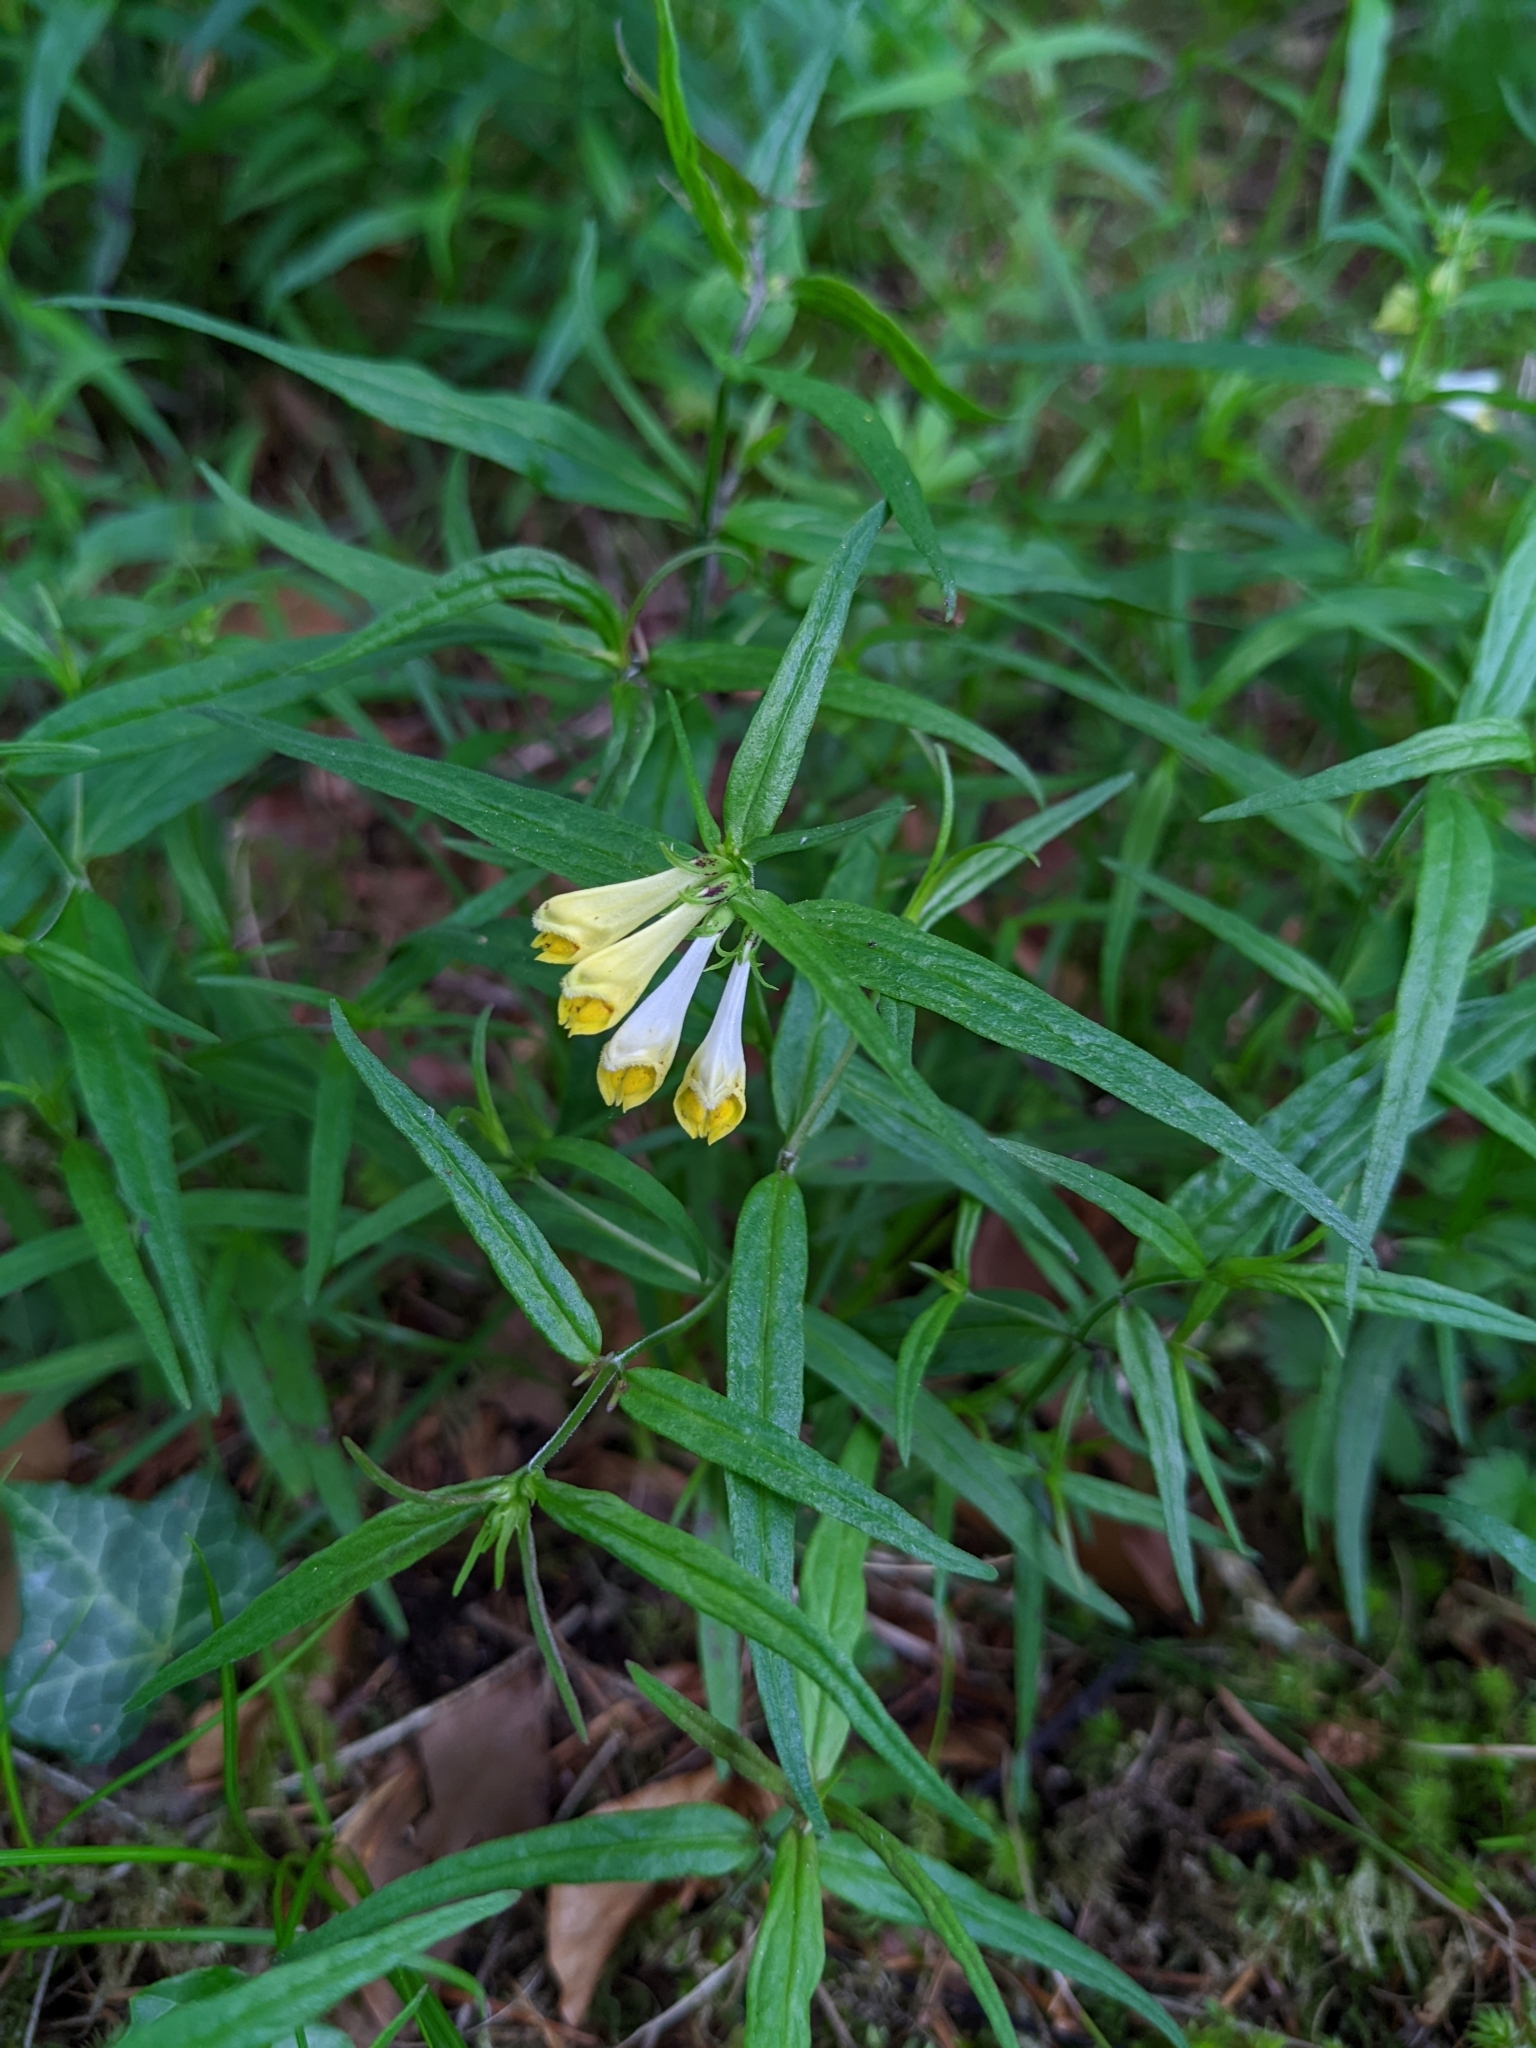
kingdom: Plantae
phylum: Tracheophyta
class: Magnoliopsida
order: Lamiales
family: Orobanchaceae
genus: Melampyrum
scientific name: Melampyrum pratense
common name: Common cow-wheat
